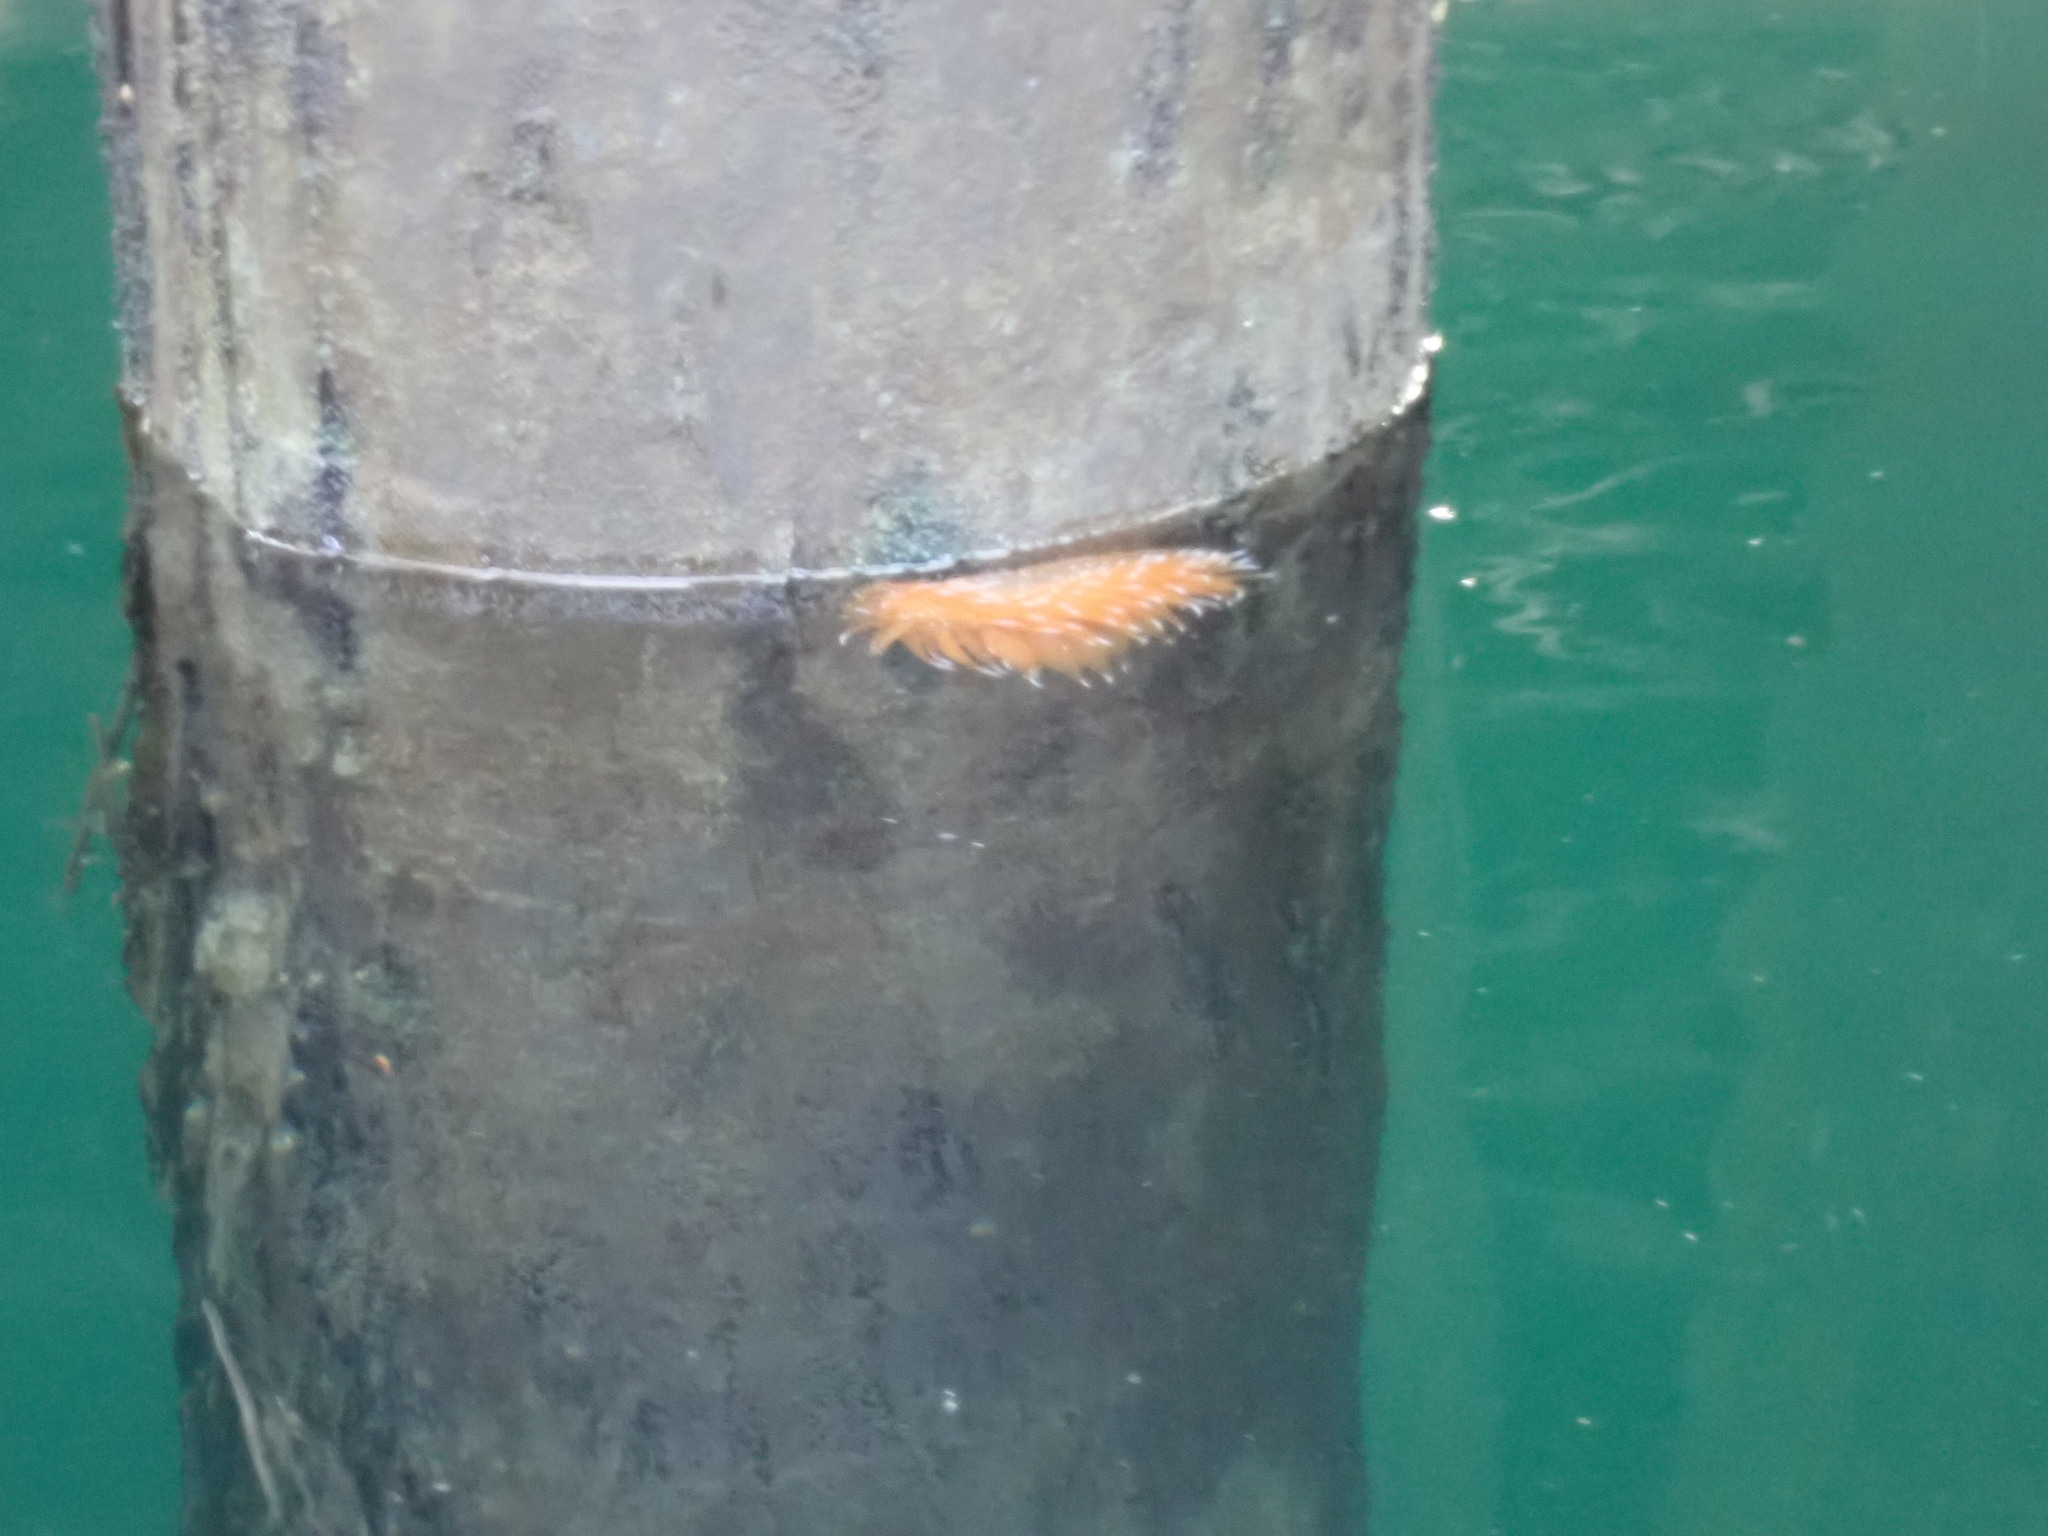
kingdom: Animalia
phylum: Mollusca
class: Gastropoda
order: Nudibranchia
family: Dironidae
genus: Dirona
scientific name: Dirona pellucida
